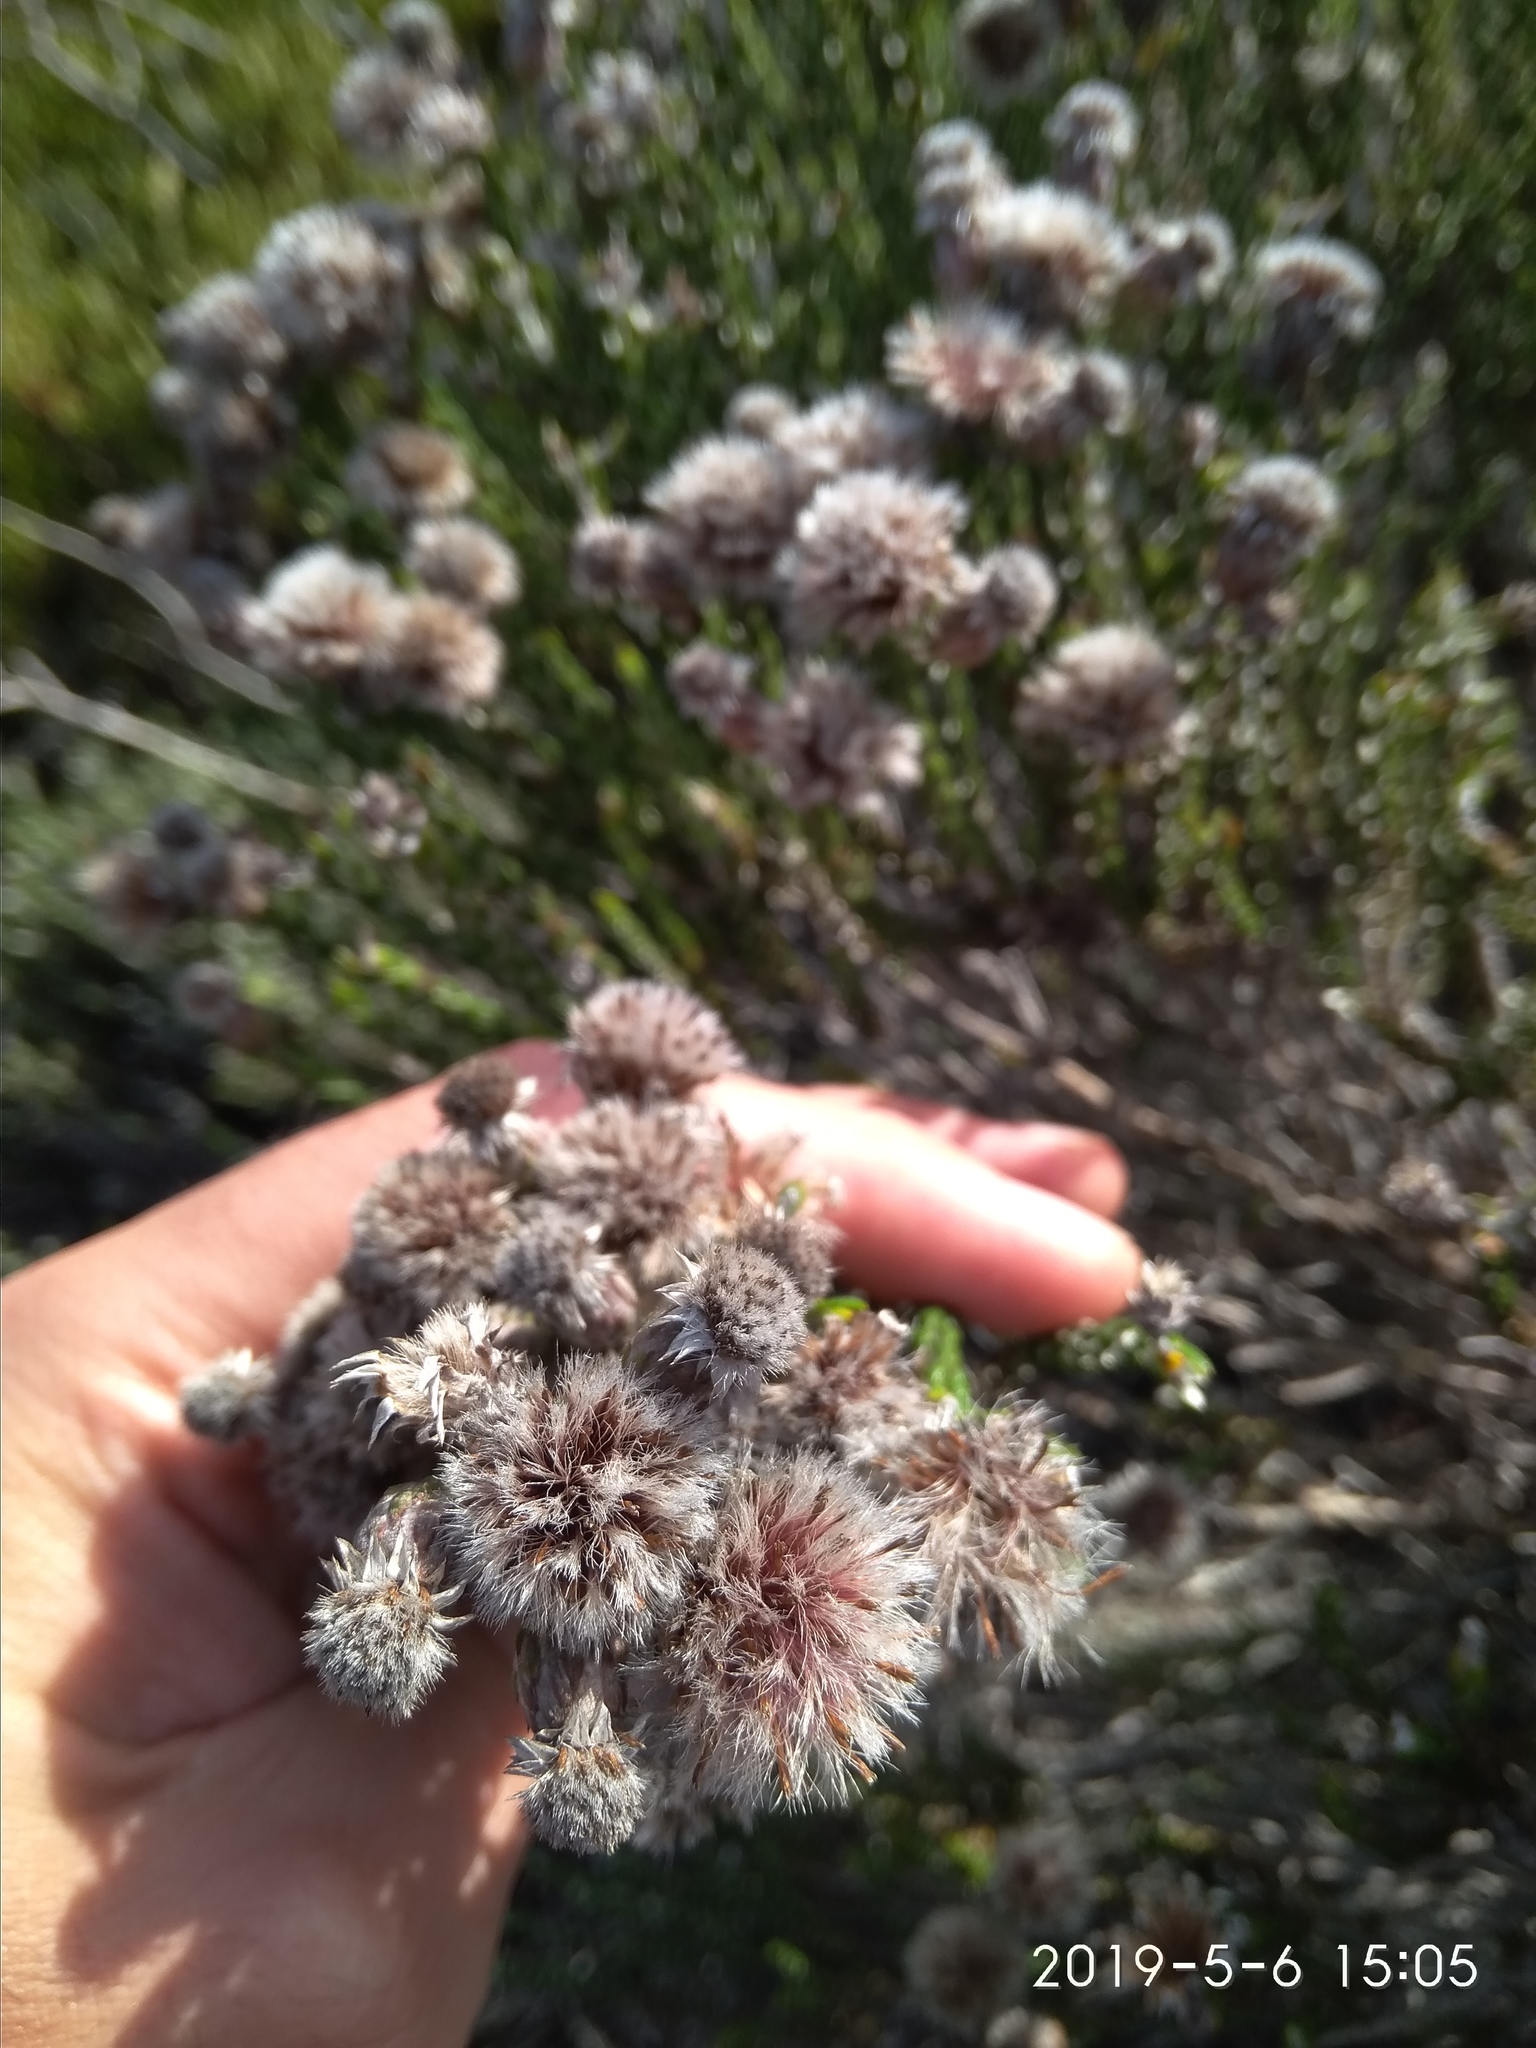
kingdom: Plantae
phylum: Tracheophyta
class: Magnoliopsida
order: Asterales
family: Asteraceae
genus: Lachnospermum
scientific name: Lachnospermum imbricatum
